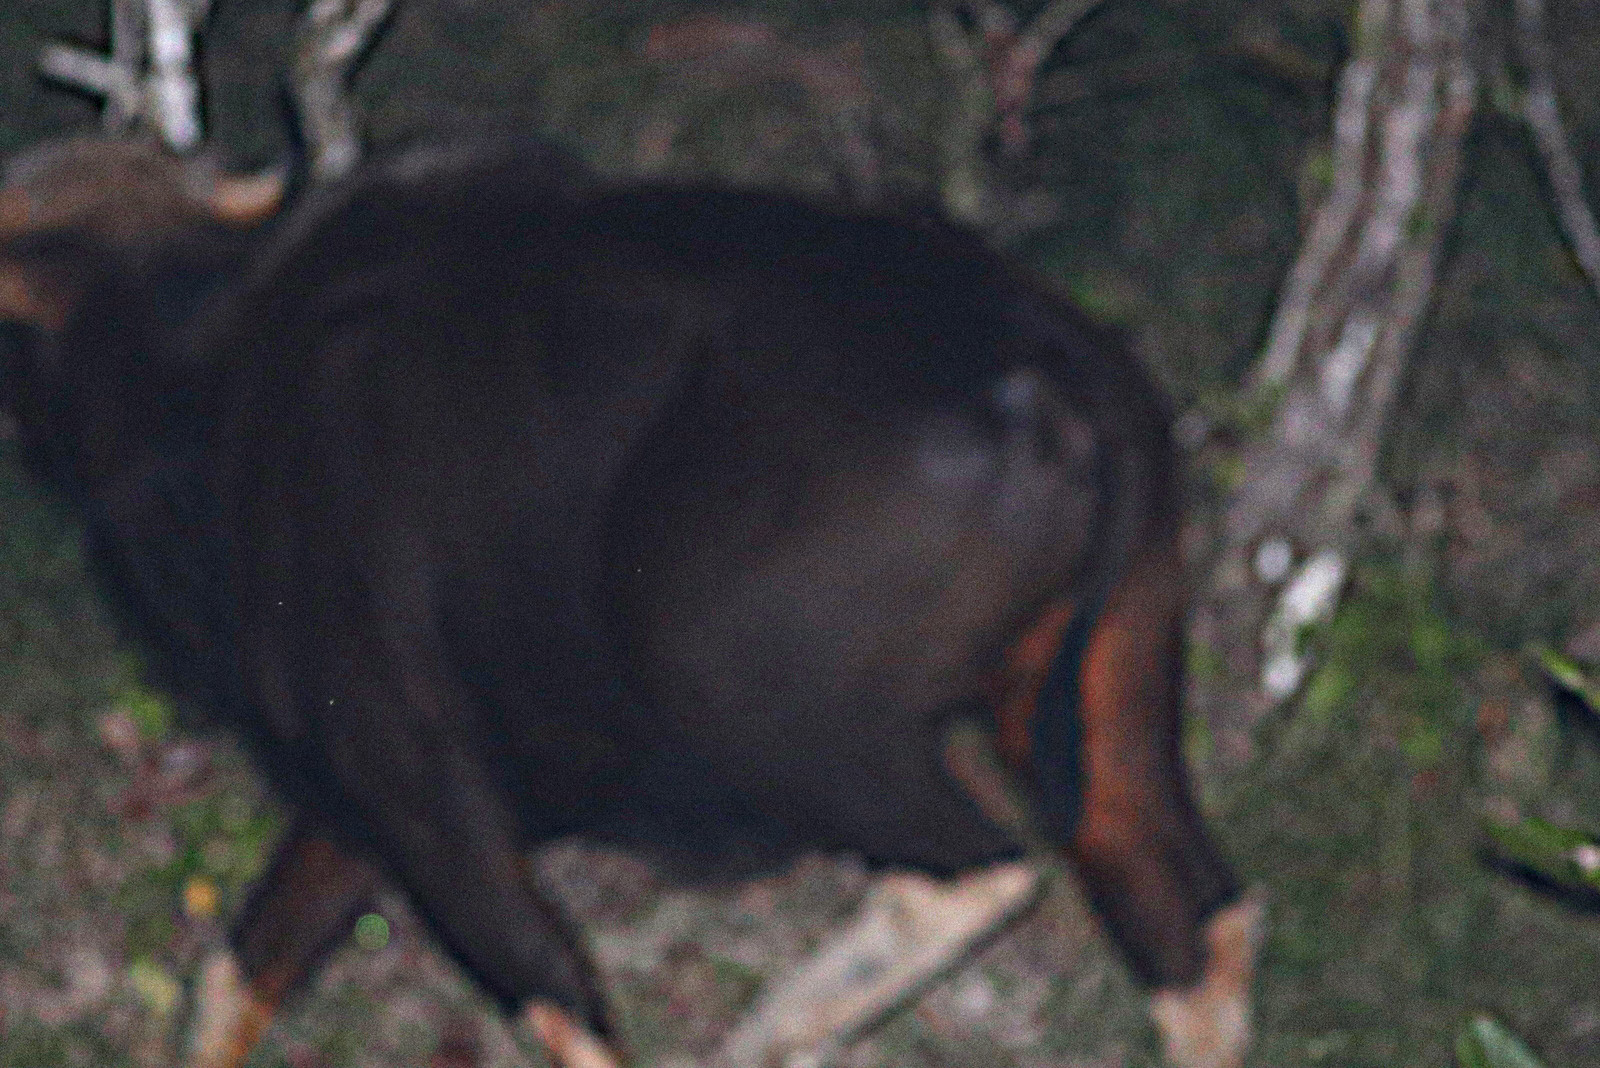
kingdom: Animalia
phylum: Chordata
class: Mammalia
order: Artiodactyla
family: Bovidae
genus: Bos
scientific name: Bos frontalis
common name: Gaur
